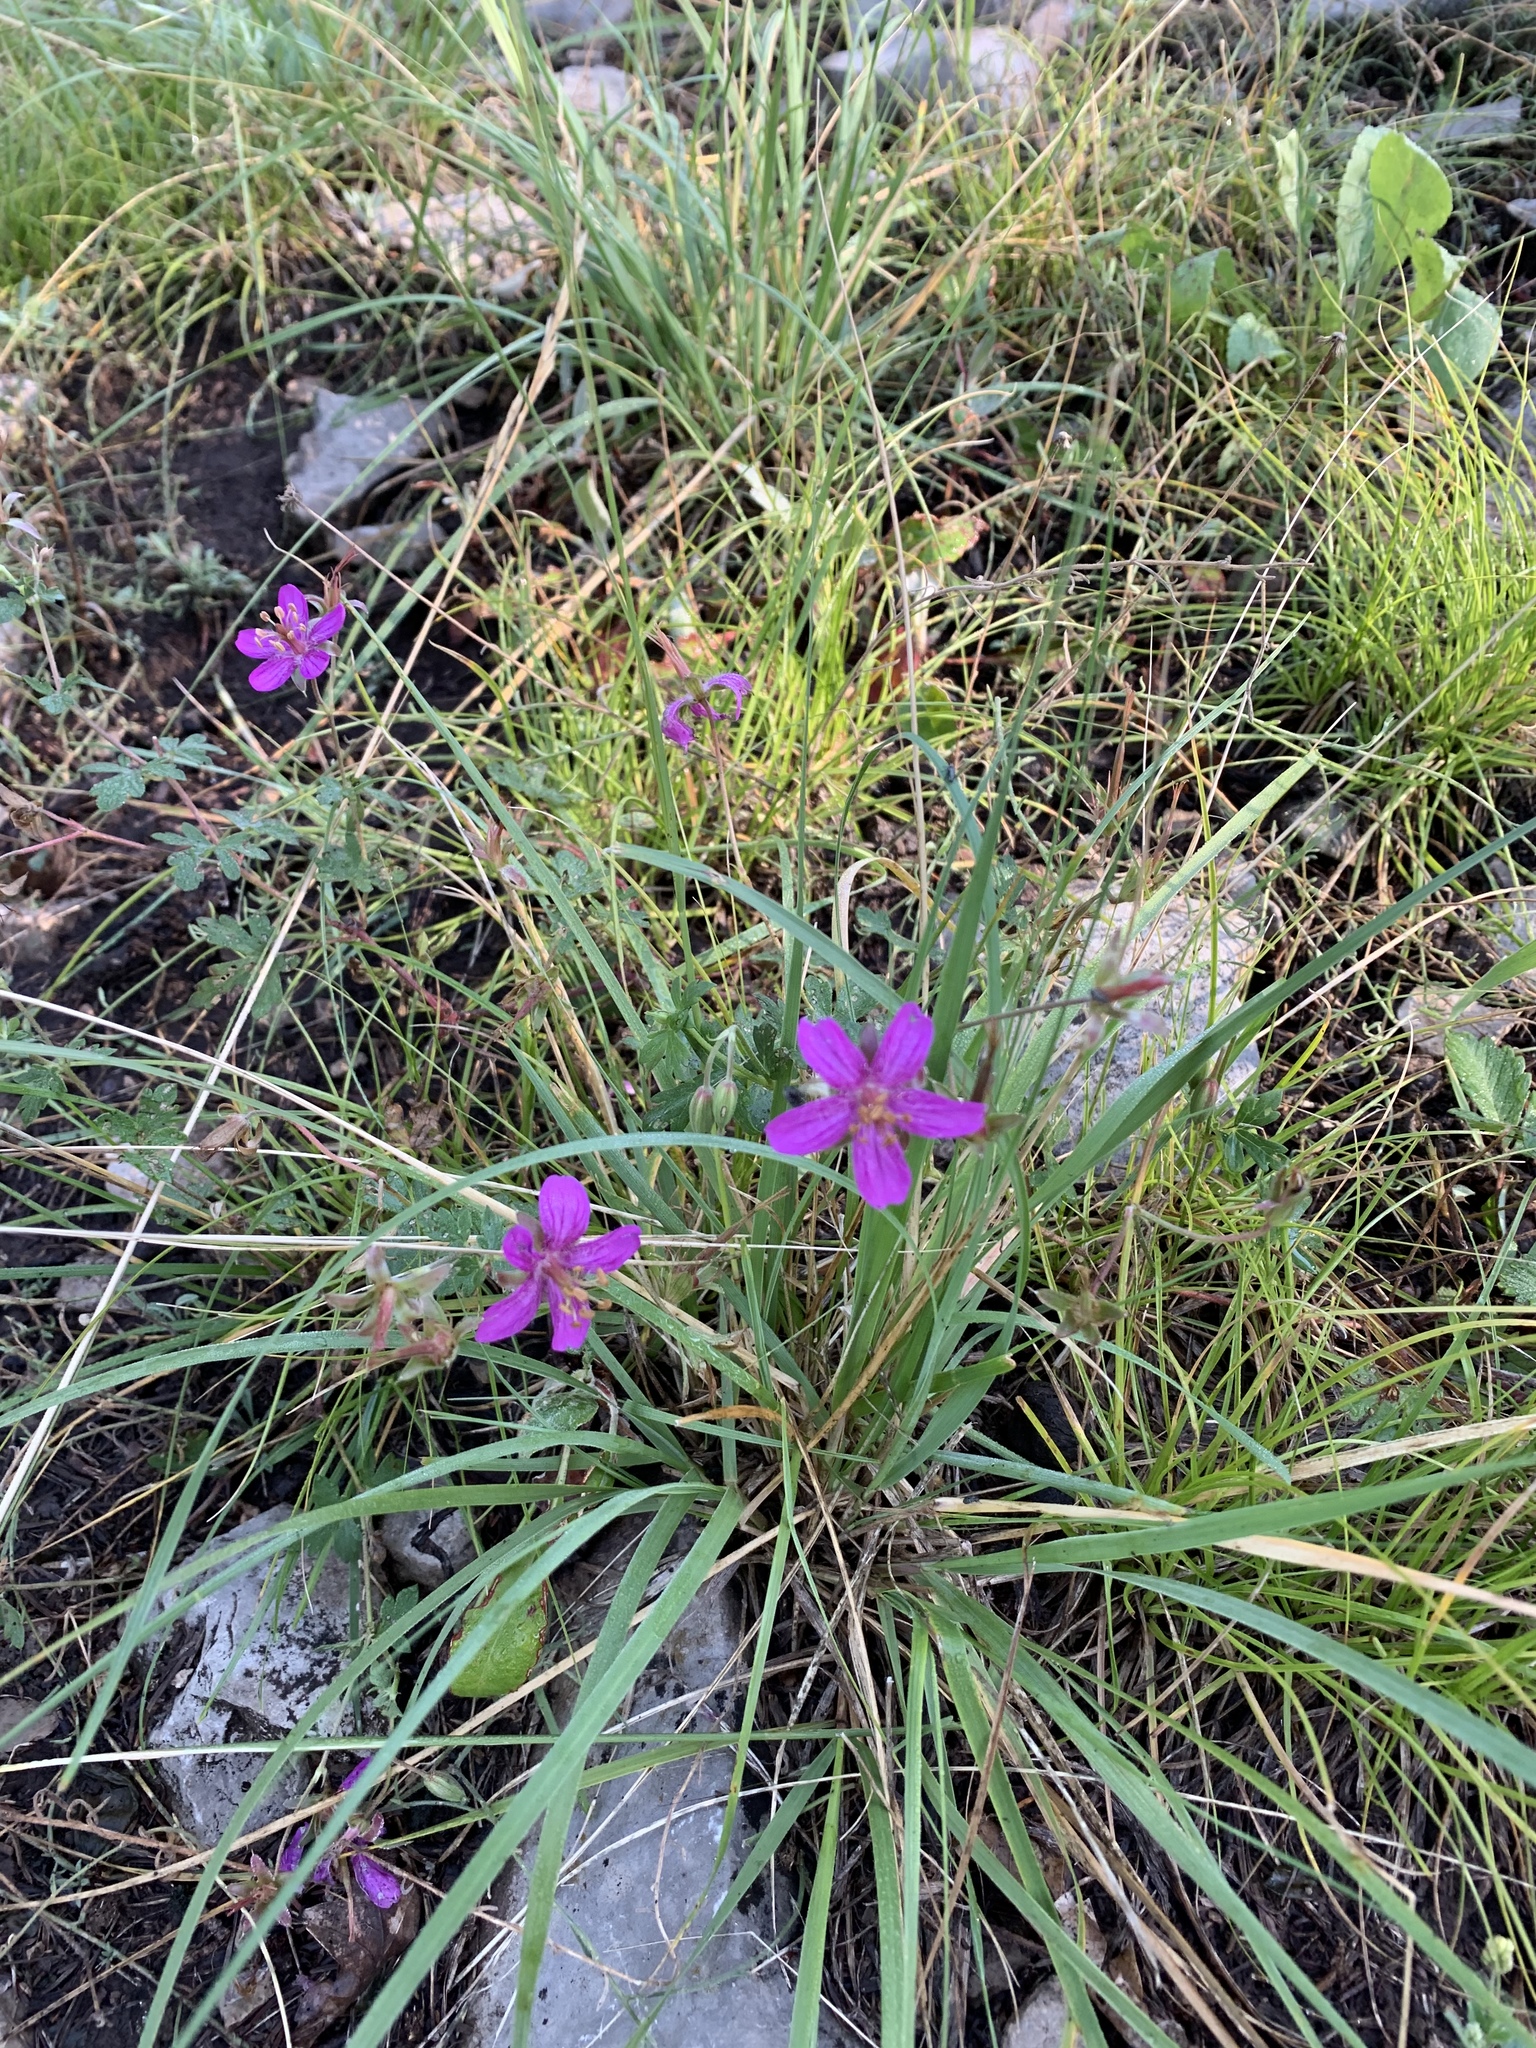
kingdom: Plantae
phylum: Tracheophyta
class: Magnoliopsida
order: Geraniales
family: Geraniaceae
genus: Geranium
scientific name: Geranium caespitosum
